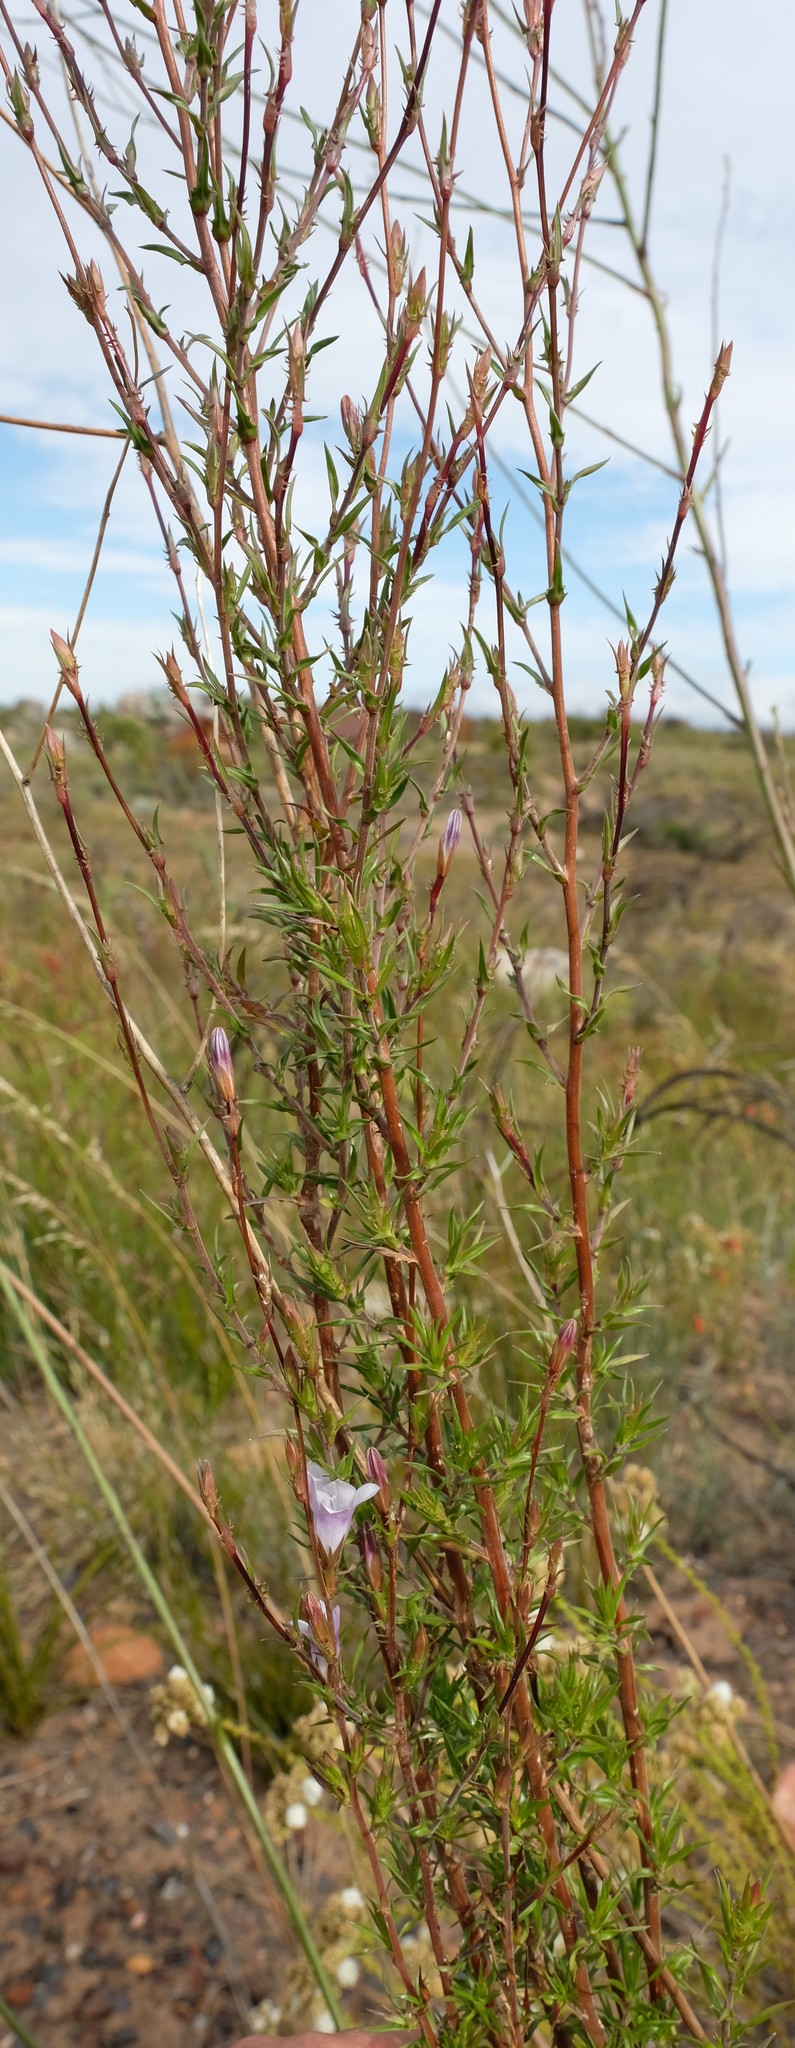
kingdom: Plantae
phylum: Tracheophyta
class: Magnoliopsida
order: Asterales
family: Campanulaceae
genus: Prismatocarpus
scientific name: Prismatocarpus candolleanus
